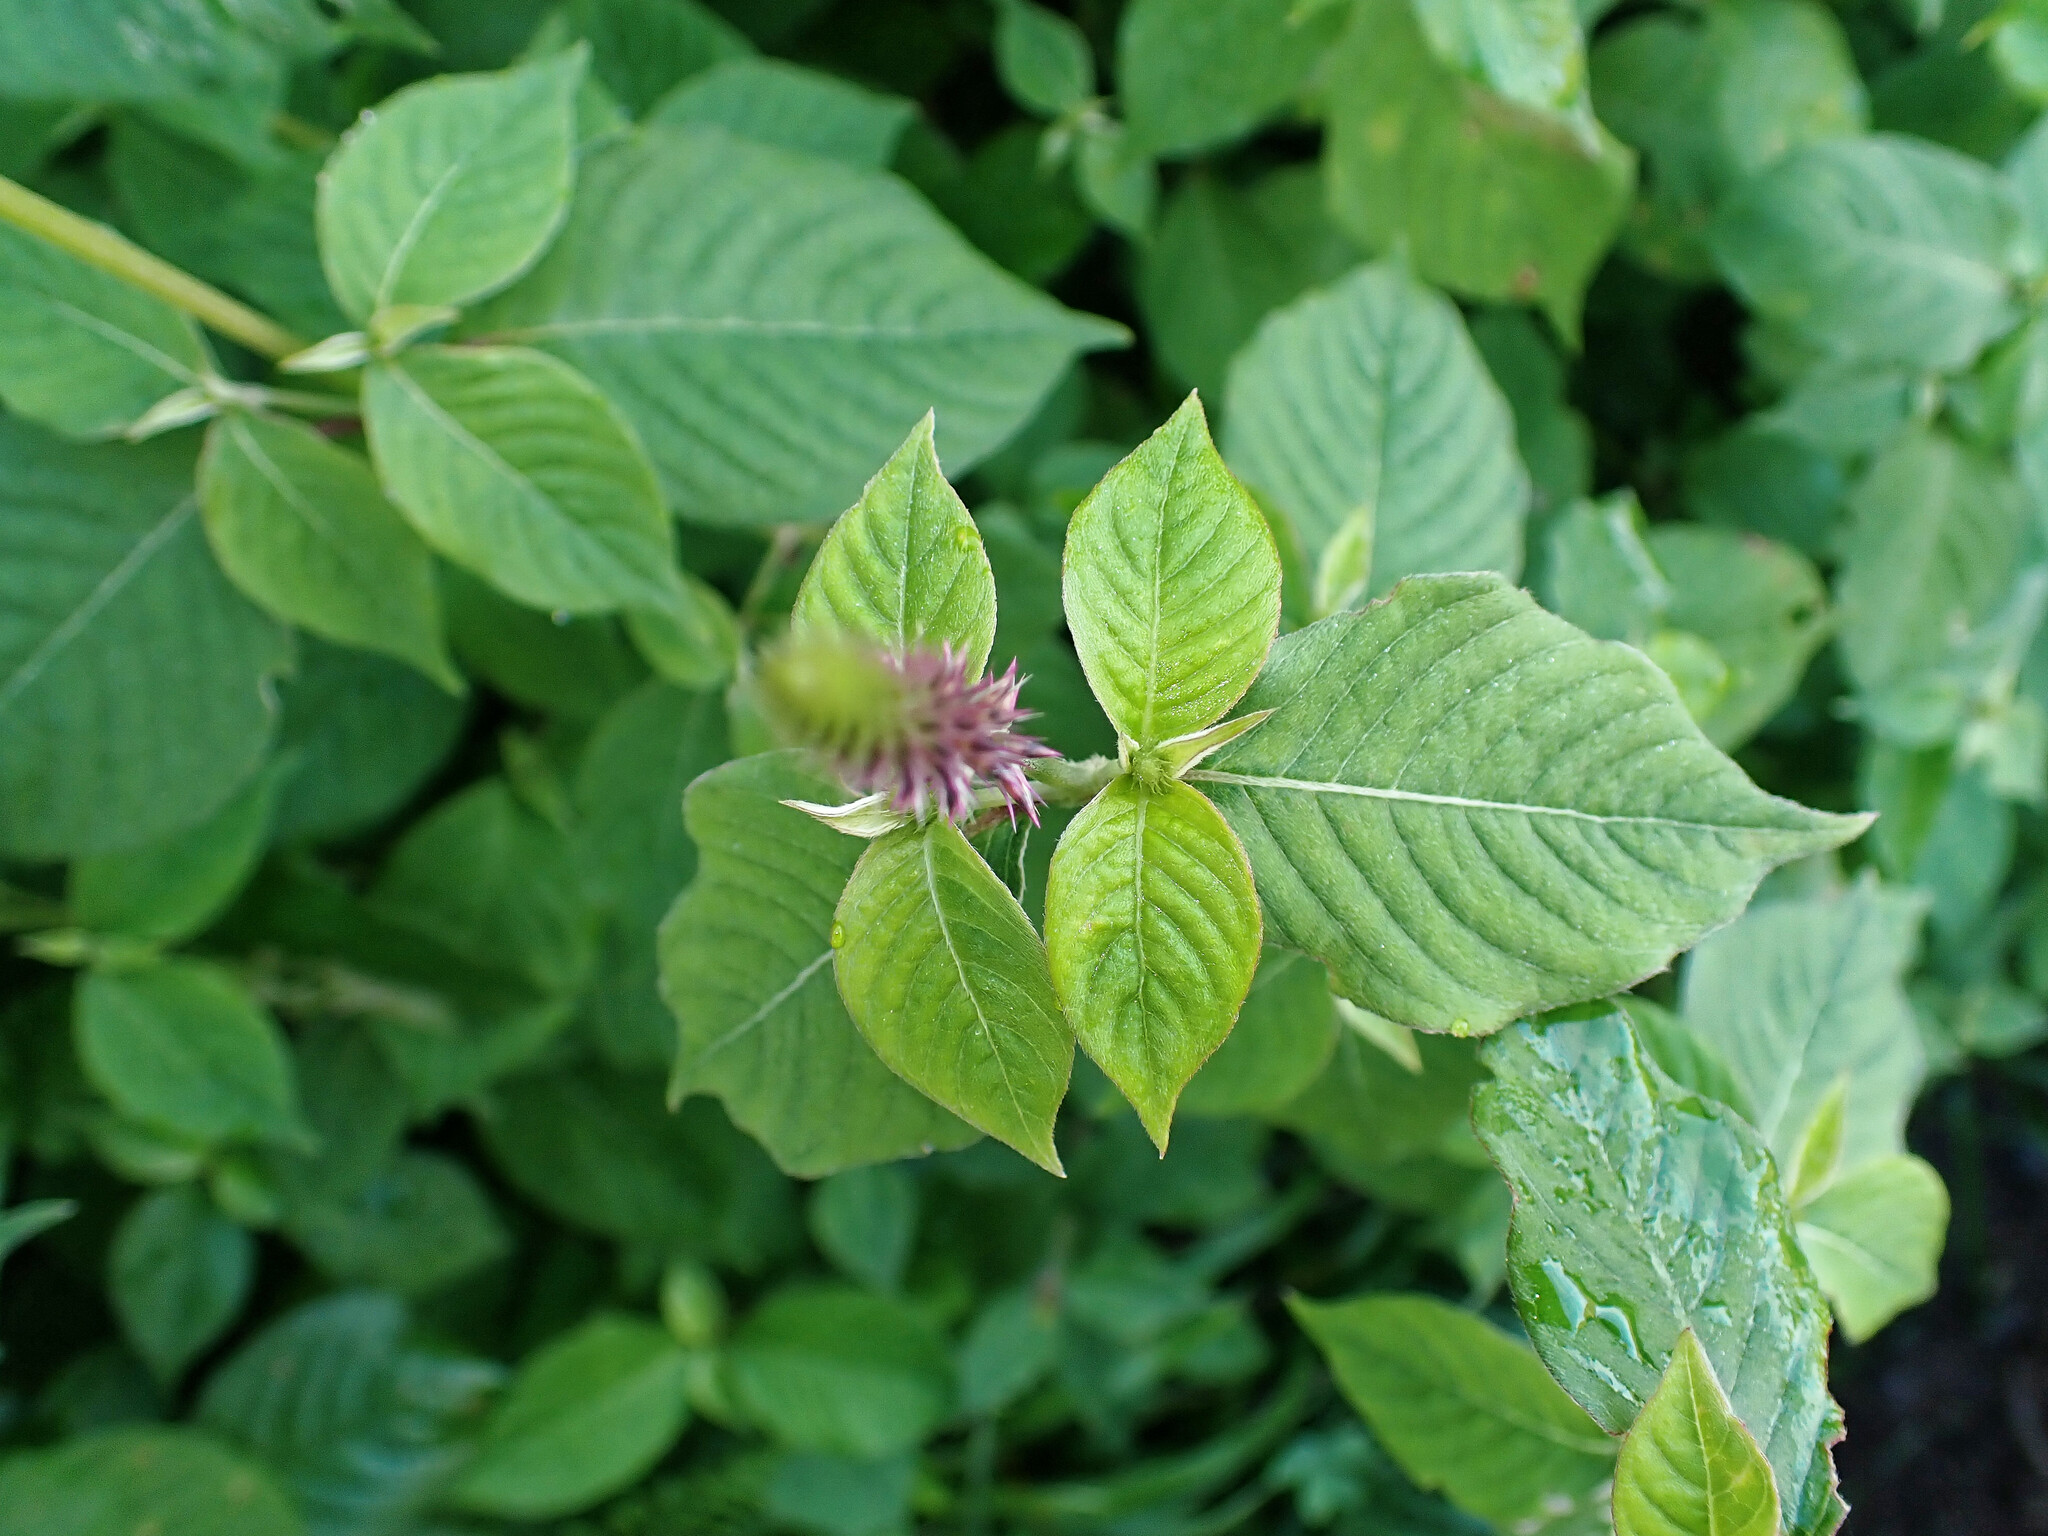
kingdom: Plantae
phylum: Tracheophyta
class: Magnoliopsida
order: Caryophyllales
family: Amaranthaceae
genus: Achyranthes
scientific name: Achyranthes aspera
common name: Devil's horsewhip
